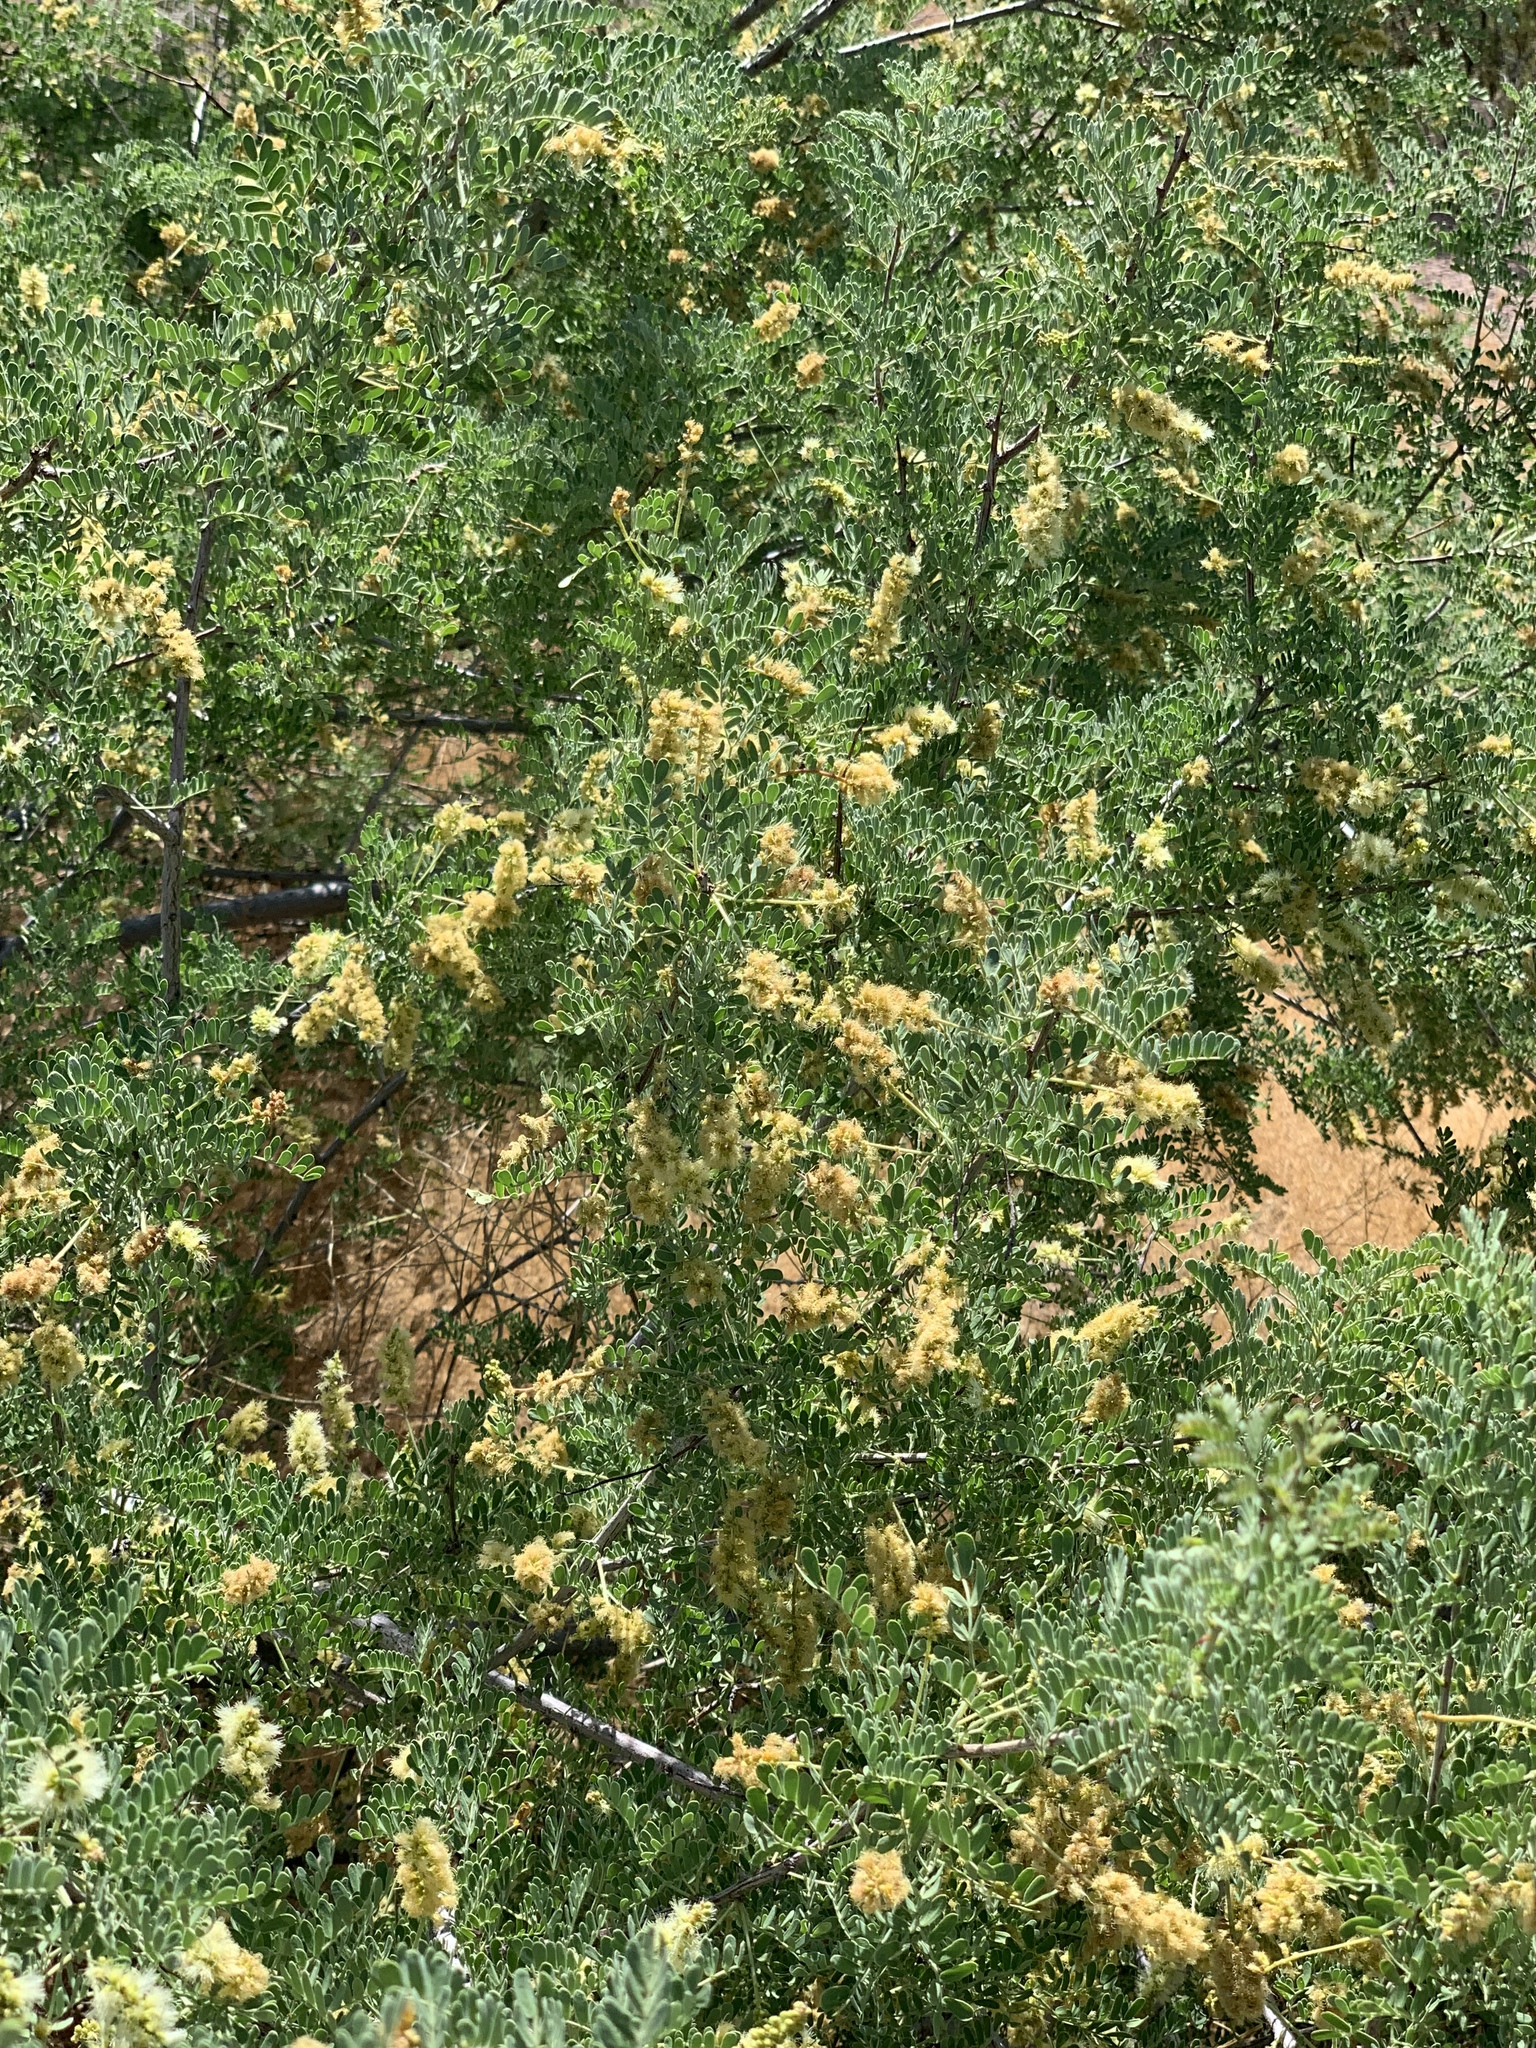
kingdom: Plantae
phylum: Tracheophyta
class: Magnoliopsida
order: Fabales
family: Fabaceae
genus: Senegalia
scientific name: Senegalia greggii
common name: Texas-mimosa
